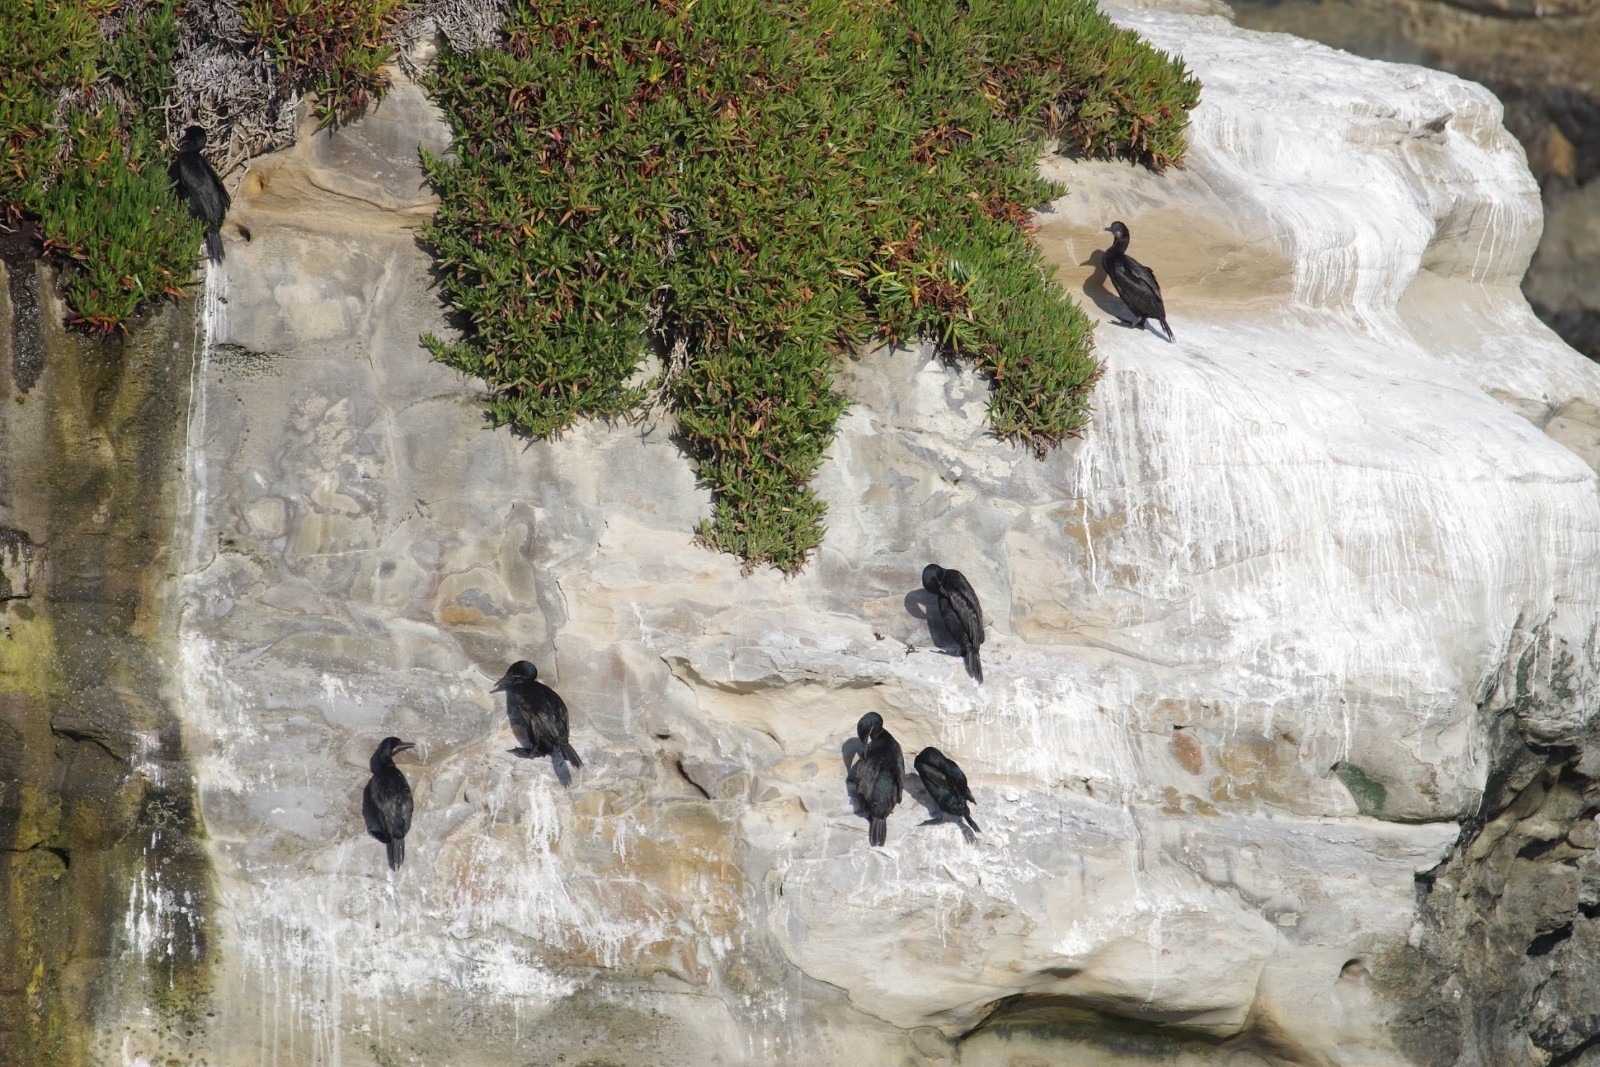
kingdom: Animalia
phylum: Chordata
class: Aves
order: Suliformes
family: Phalacrocoracidae
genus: Urile
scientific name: Urile penicillatus
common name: Brandt's cormorant
